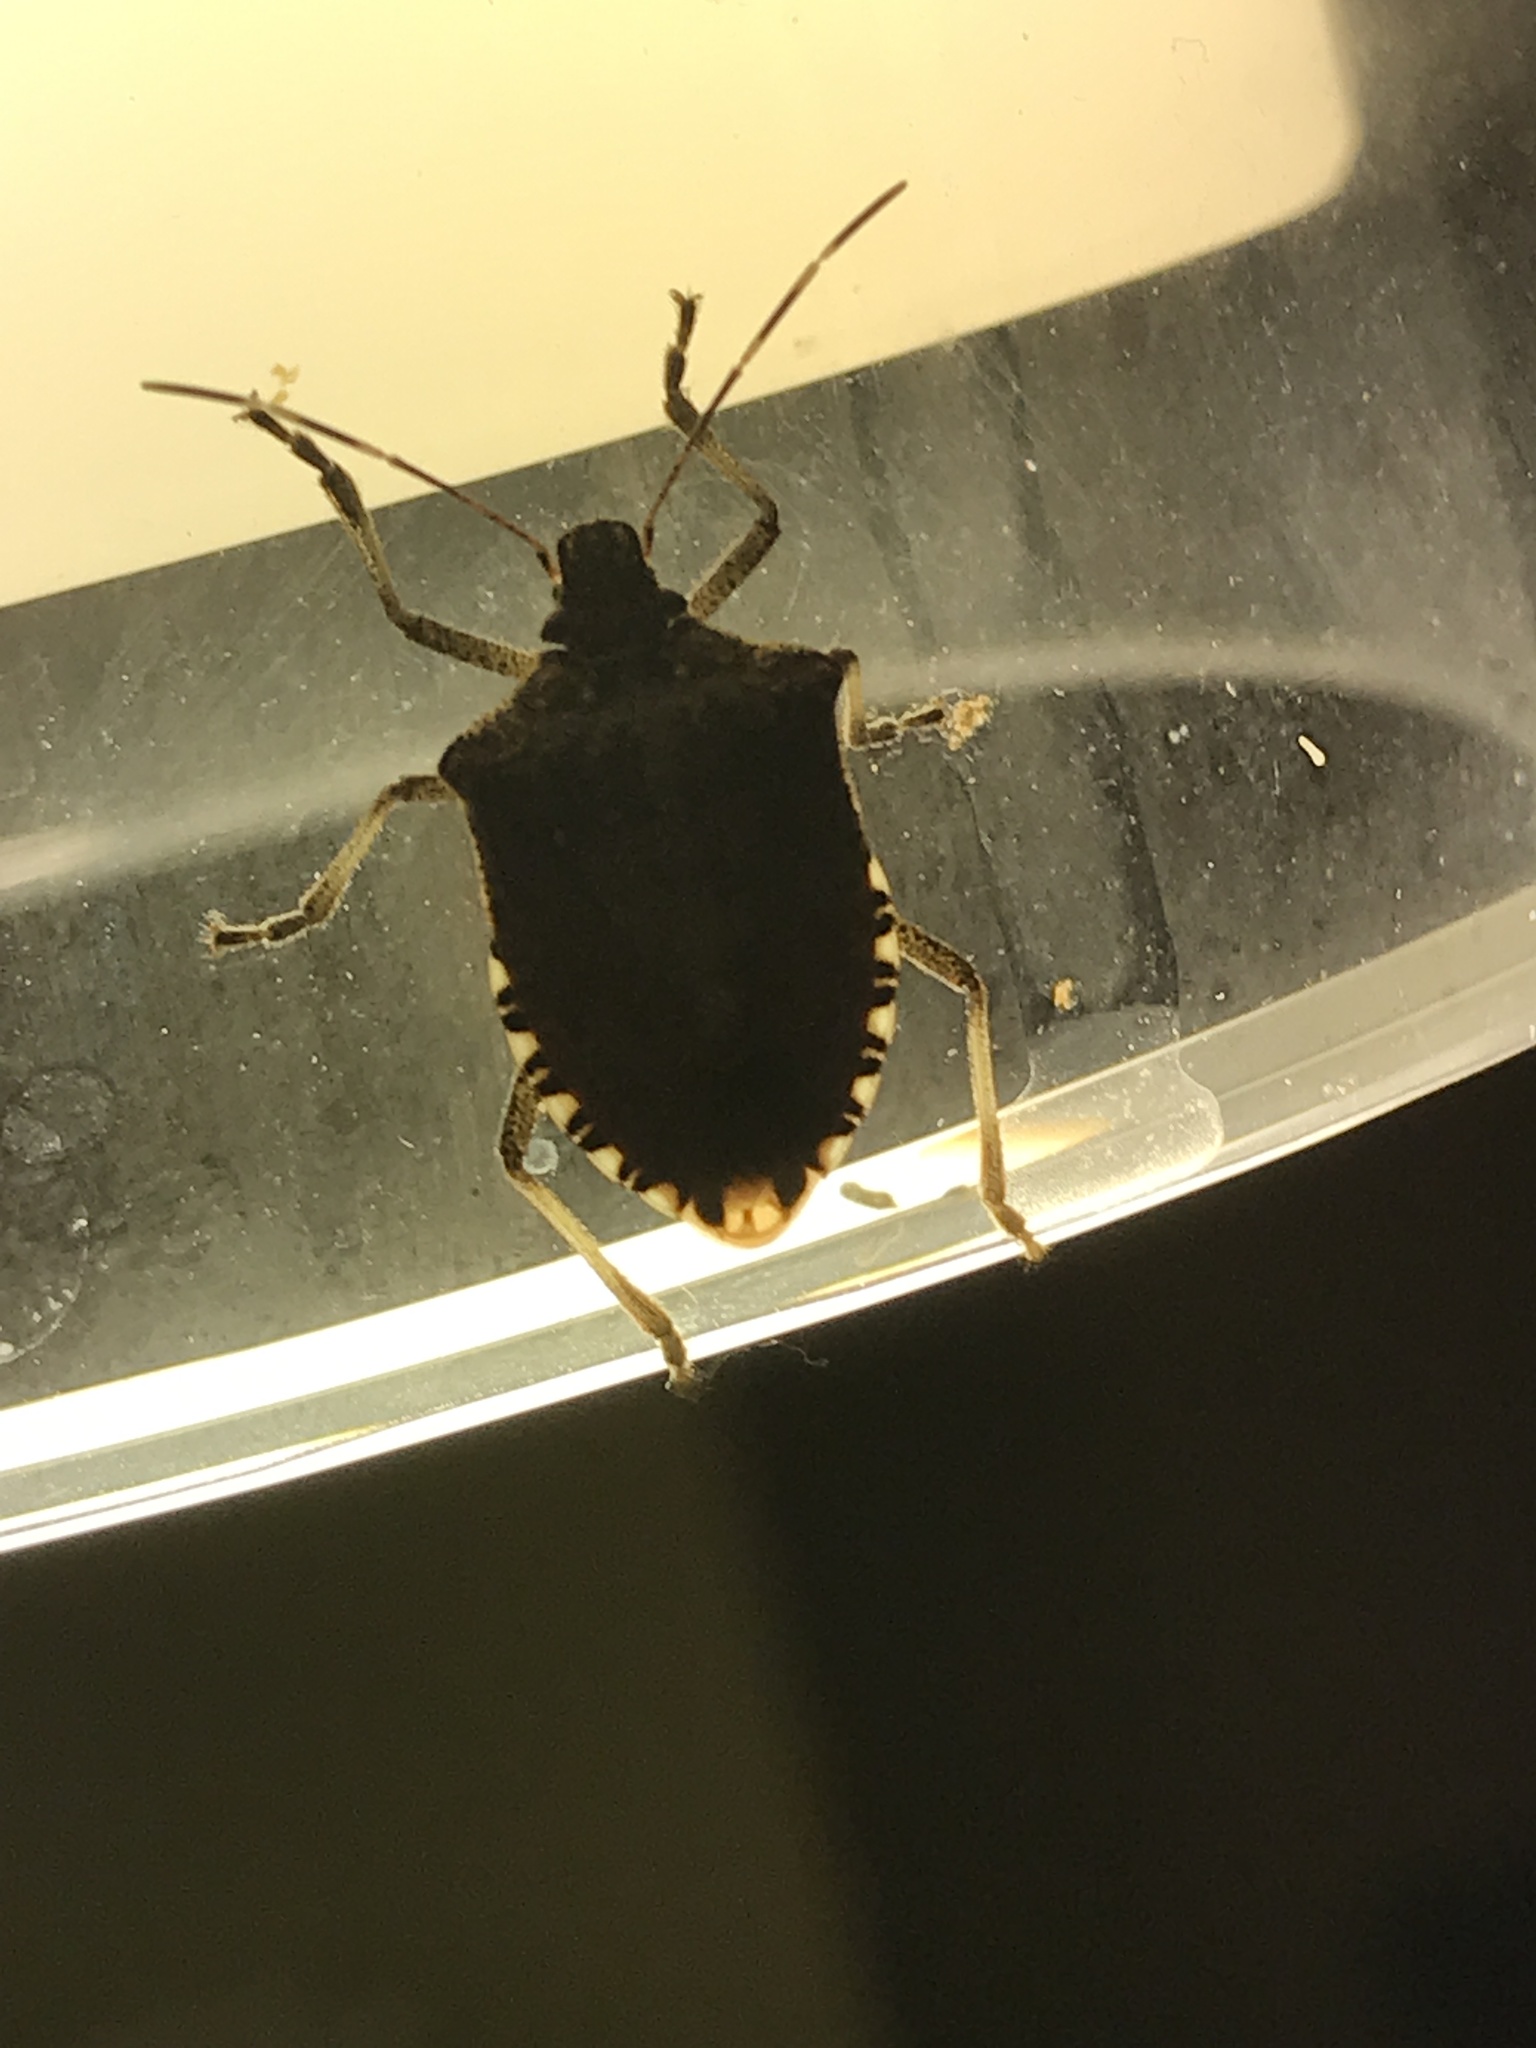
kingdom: Animalia
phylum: Arthropoda
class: Insecta
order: Hemiptera
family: Pentatomidae
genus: Halyomorpha
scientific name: Halyomorpha halys
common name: Brown marmorated stink bug
